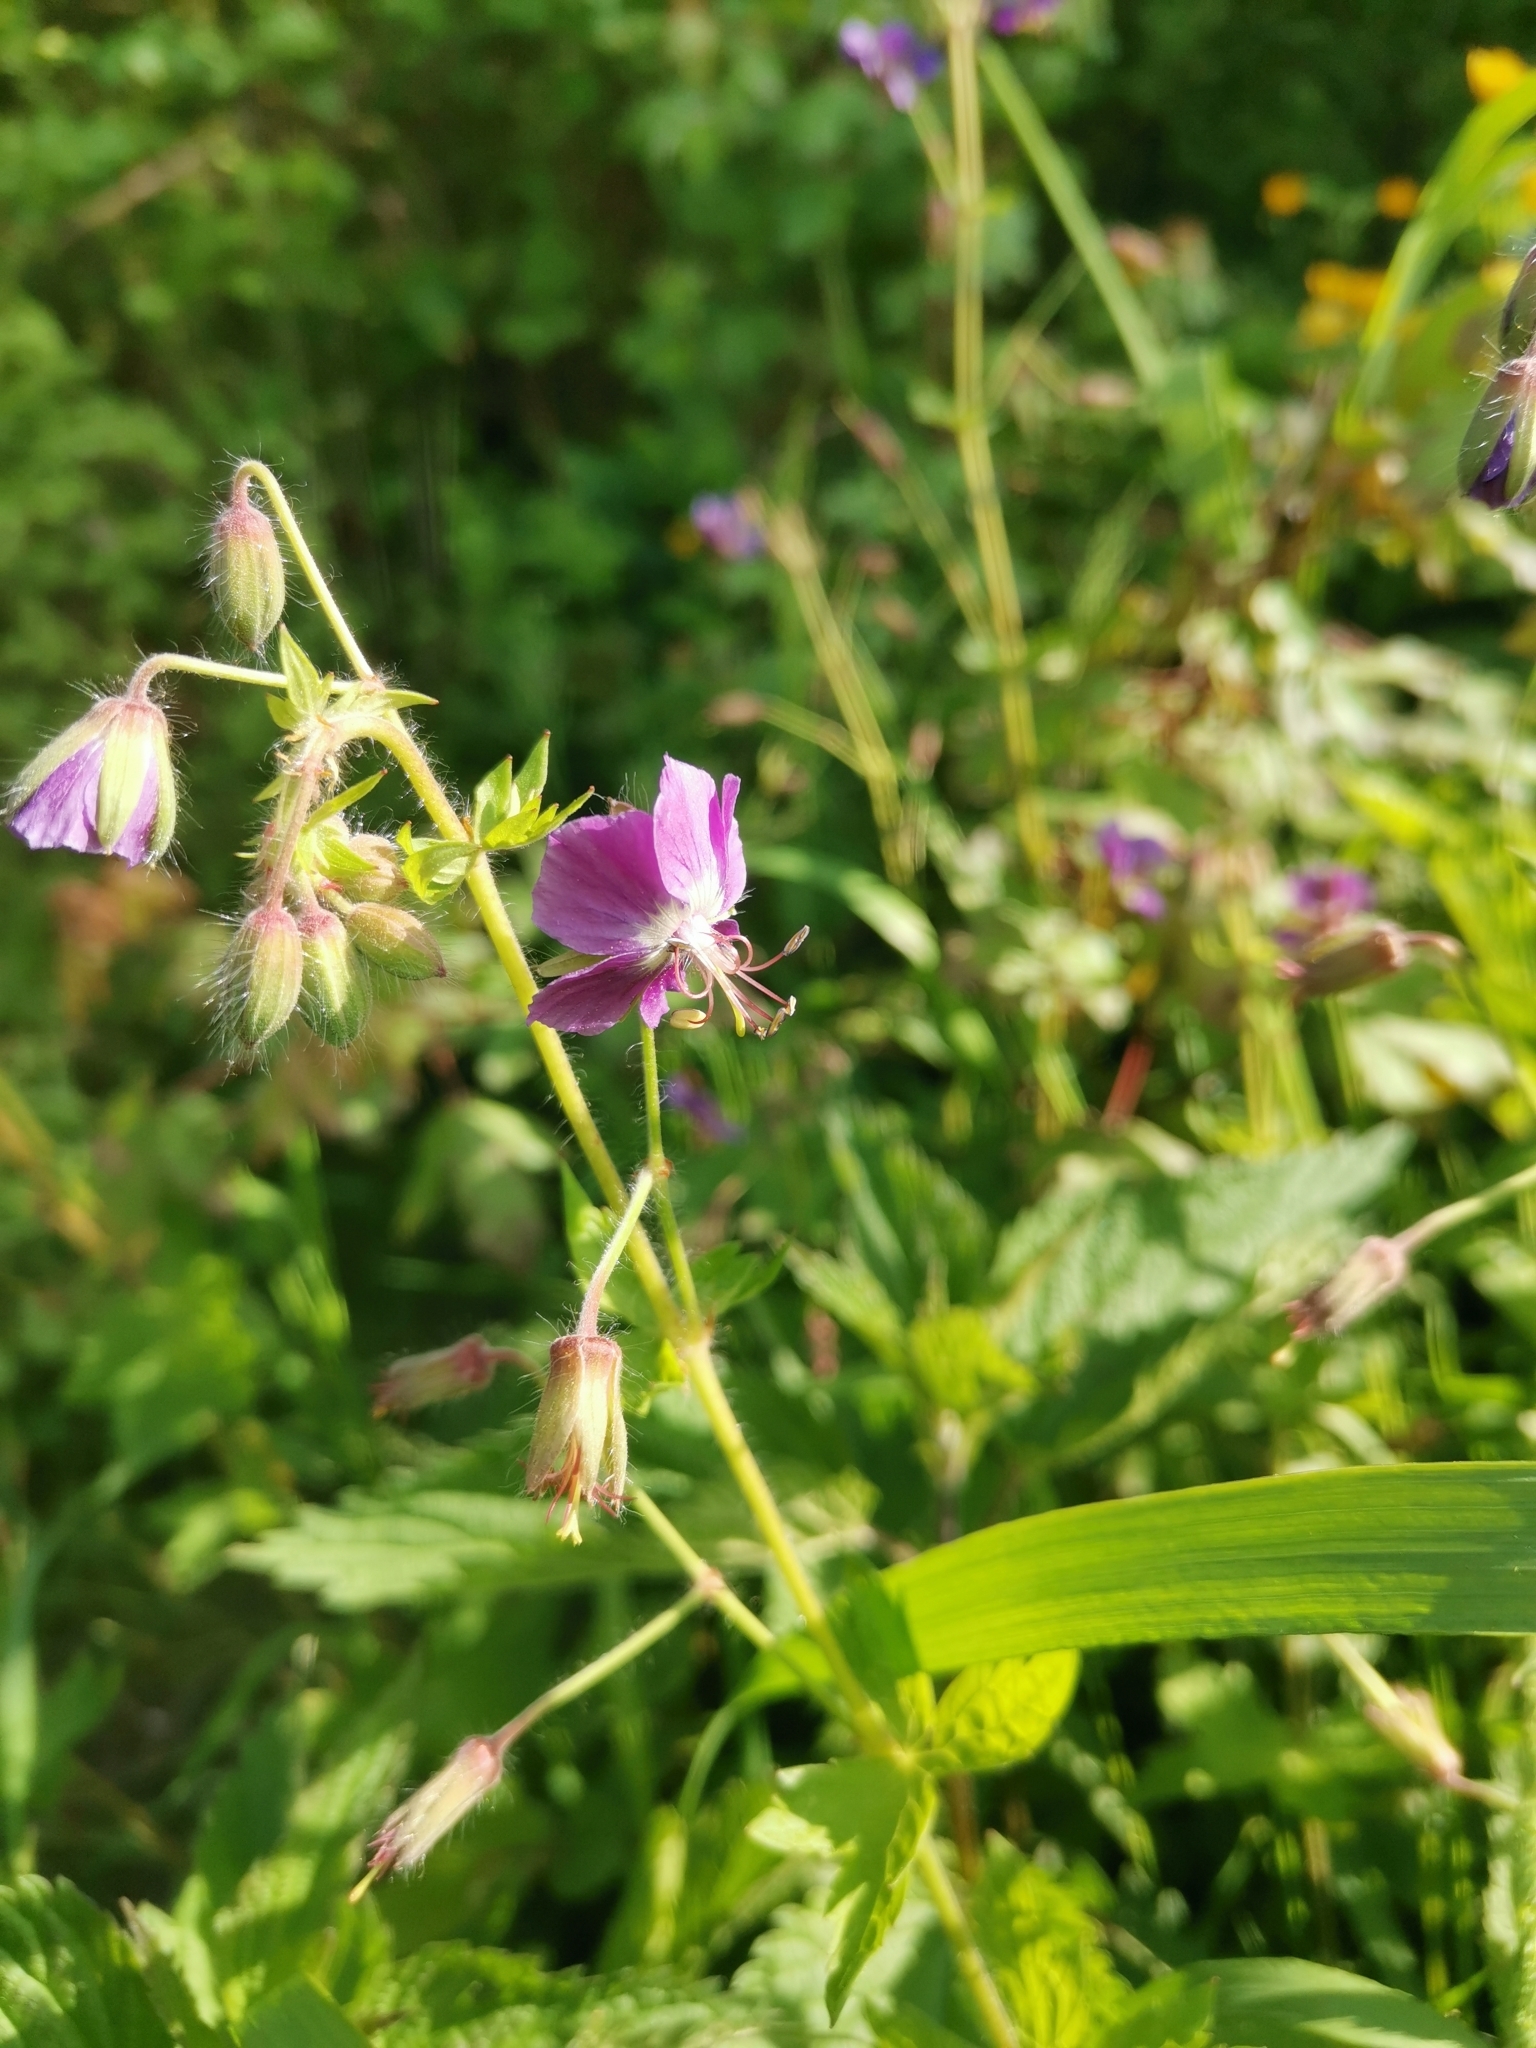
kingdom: Plantae
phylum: Tracheophyta
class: Magnoliopsida
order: Geraniales
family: Geraniaceae
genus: Geranium
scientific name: Geranium phaeum
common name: Dusky crane's-bill
